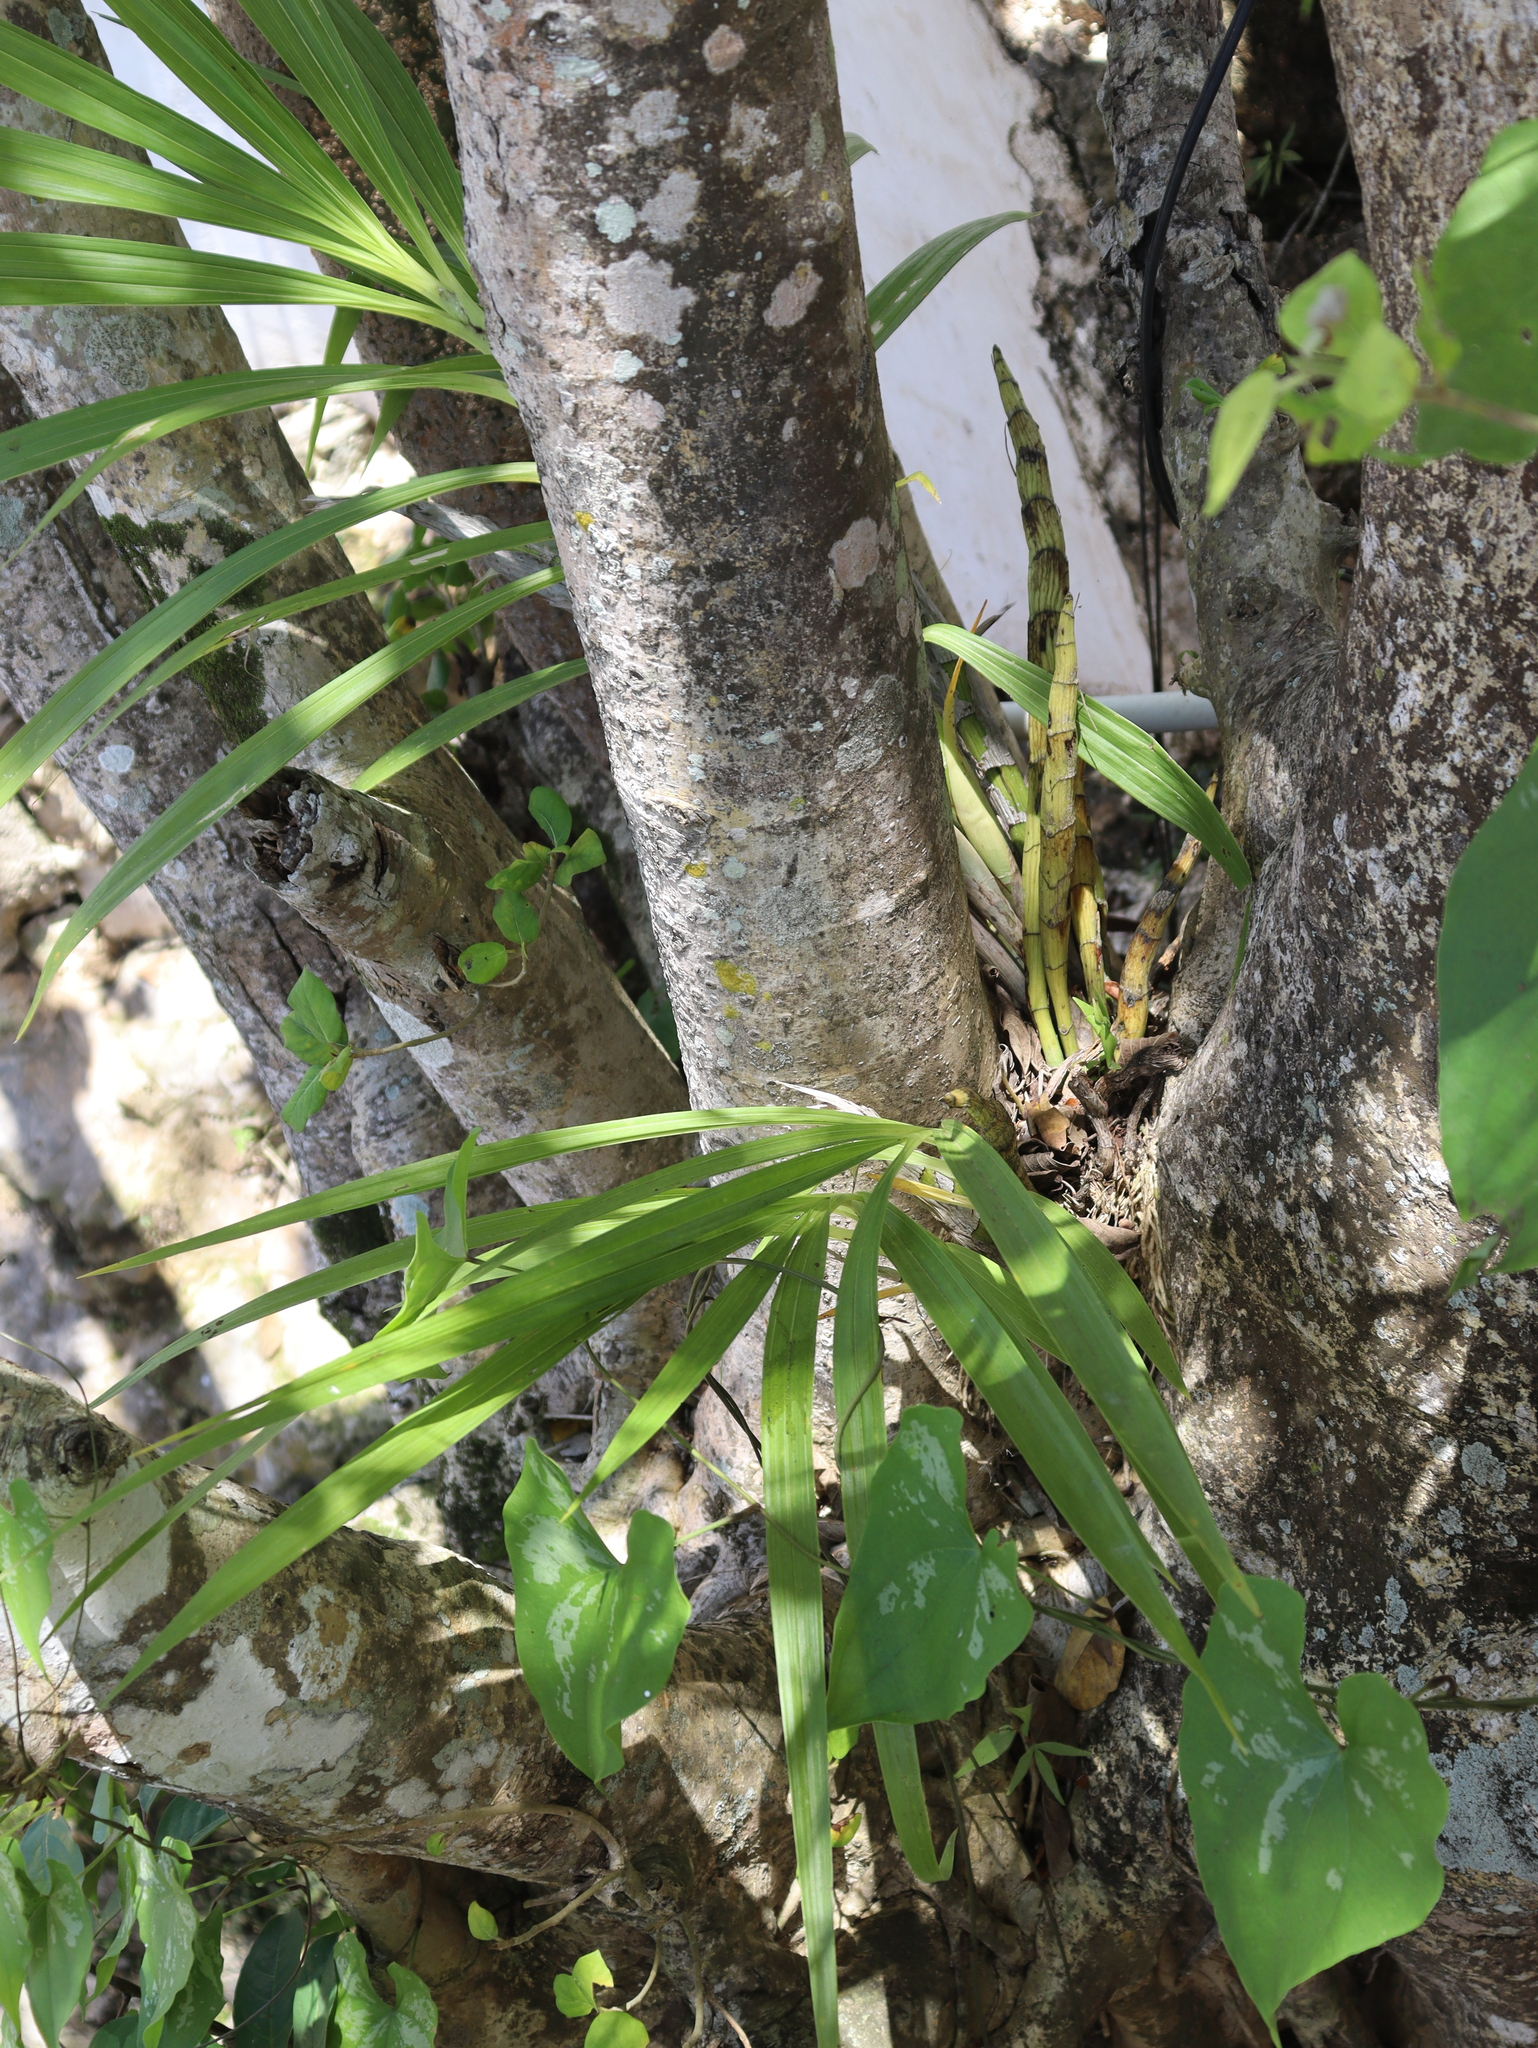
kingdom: Plantae
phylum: Tracheophyta
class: Liliopsida
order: Asparagales
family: Orchidaceae
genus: Cyrtopodium
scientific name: Cyrtopodium macrobulbon
